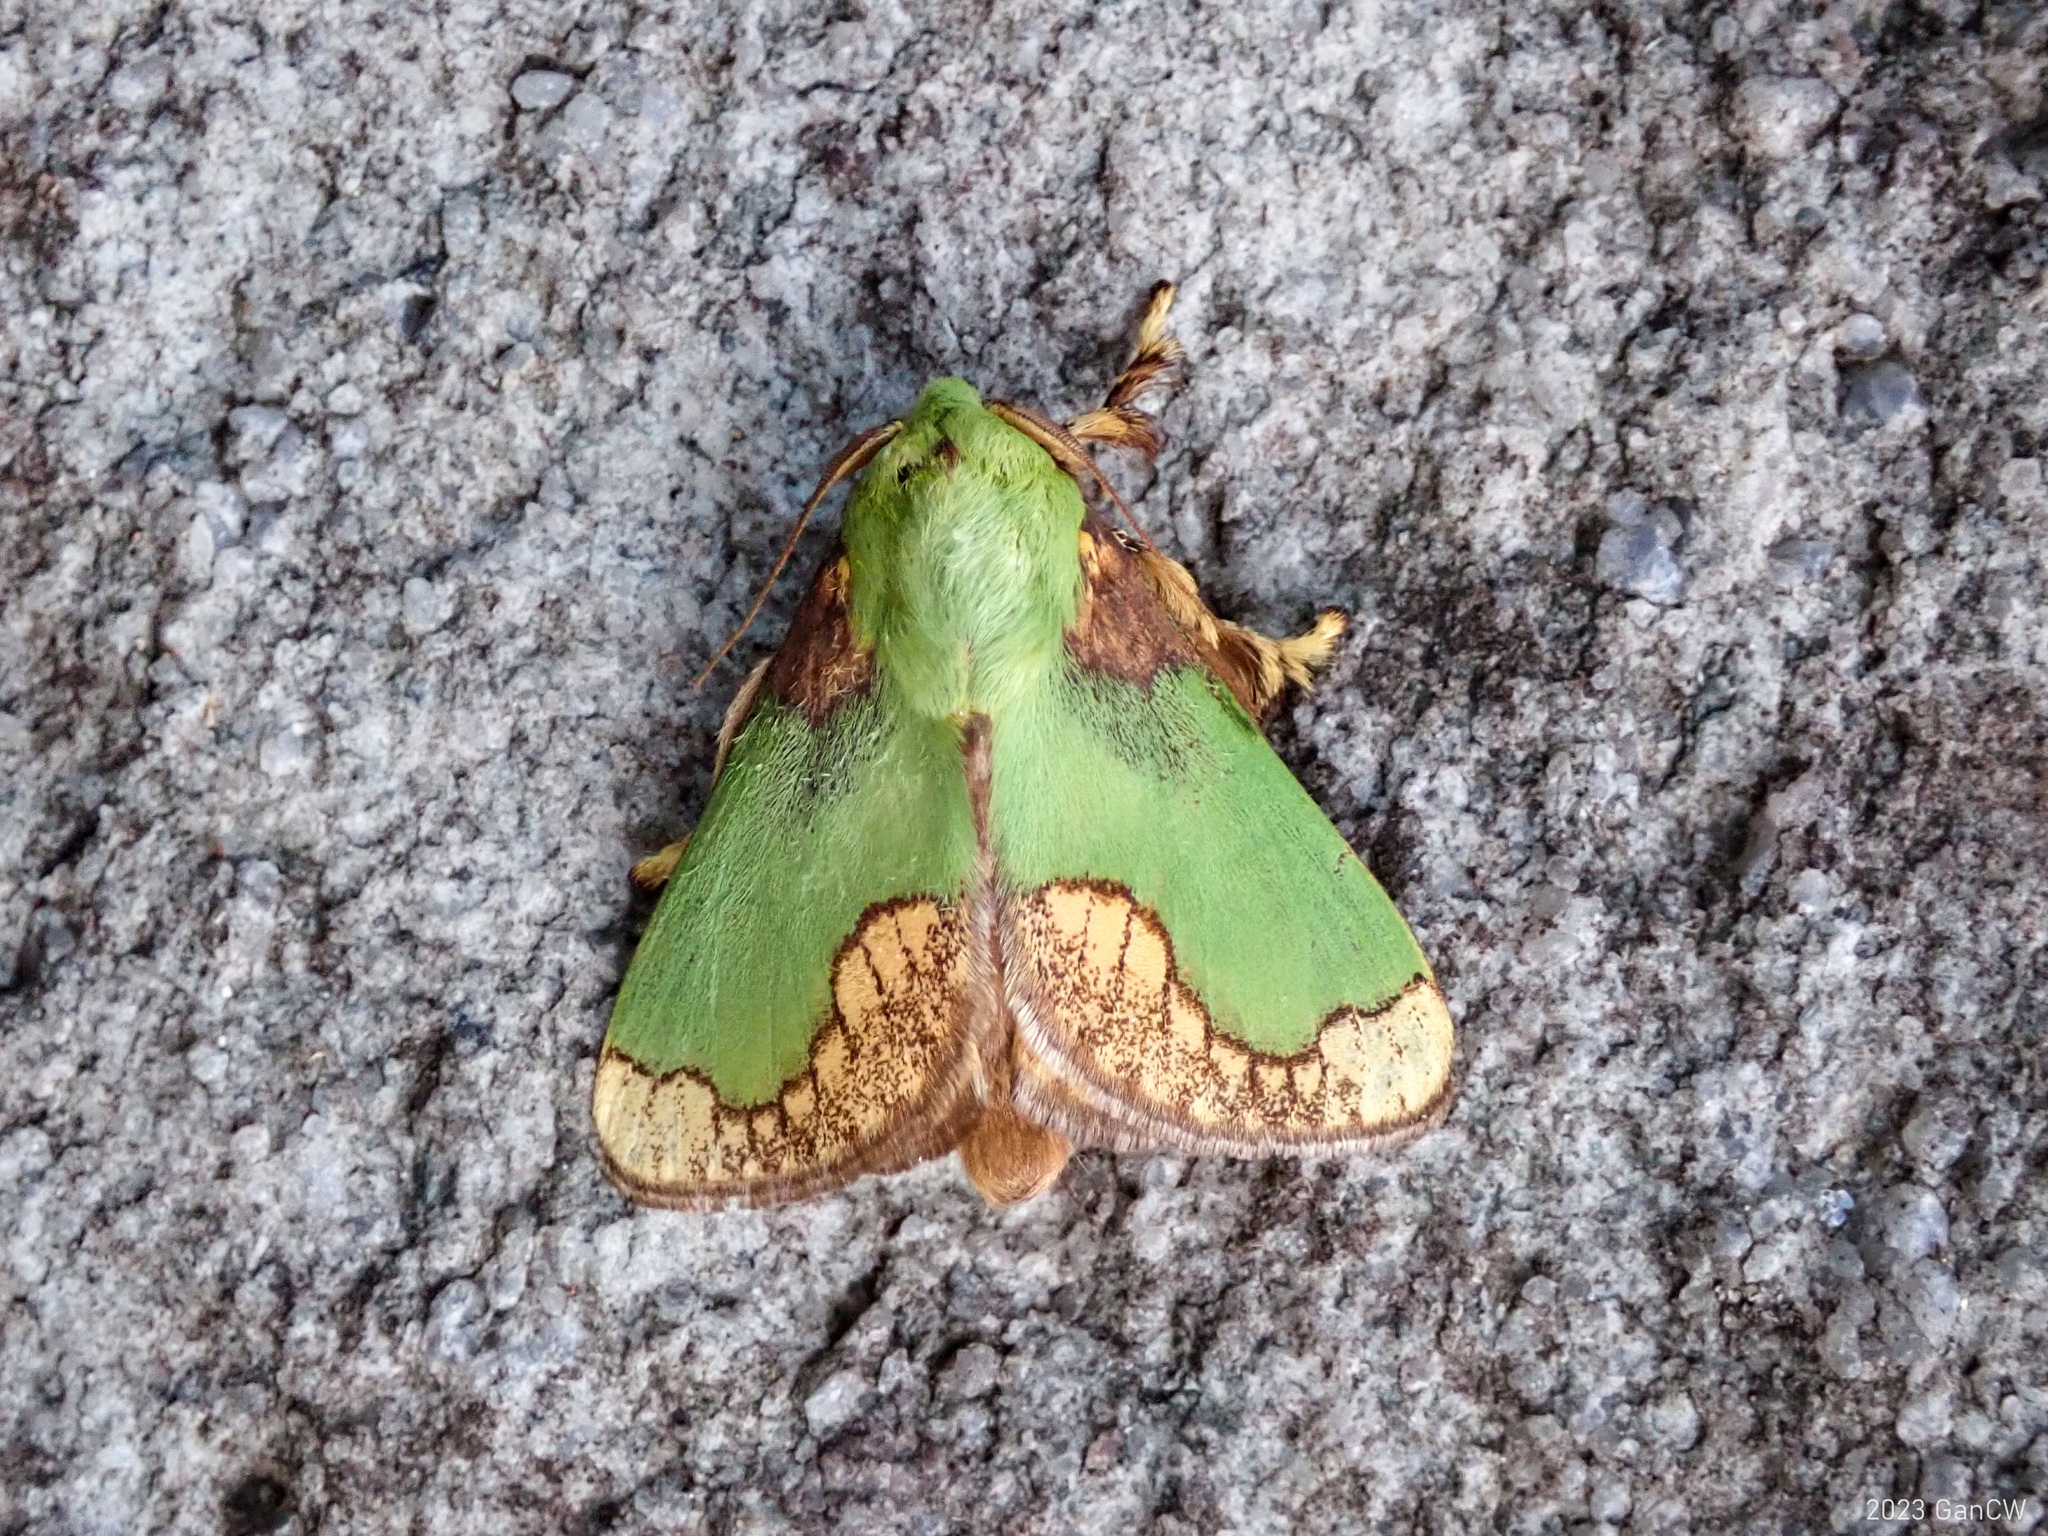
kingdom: Animalia
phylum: Arthropoda
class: Insecta
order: Lepidoptera
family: Limacodidae
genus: Parasa
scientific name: Parasa pastoralis
